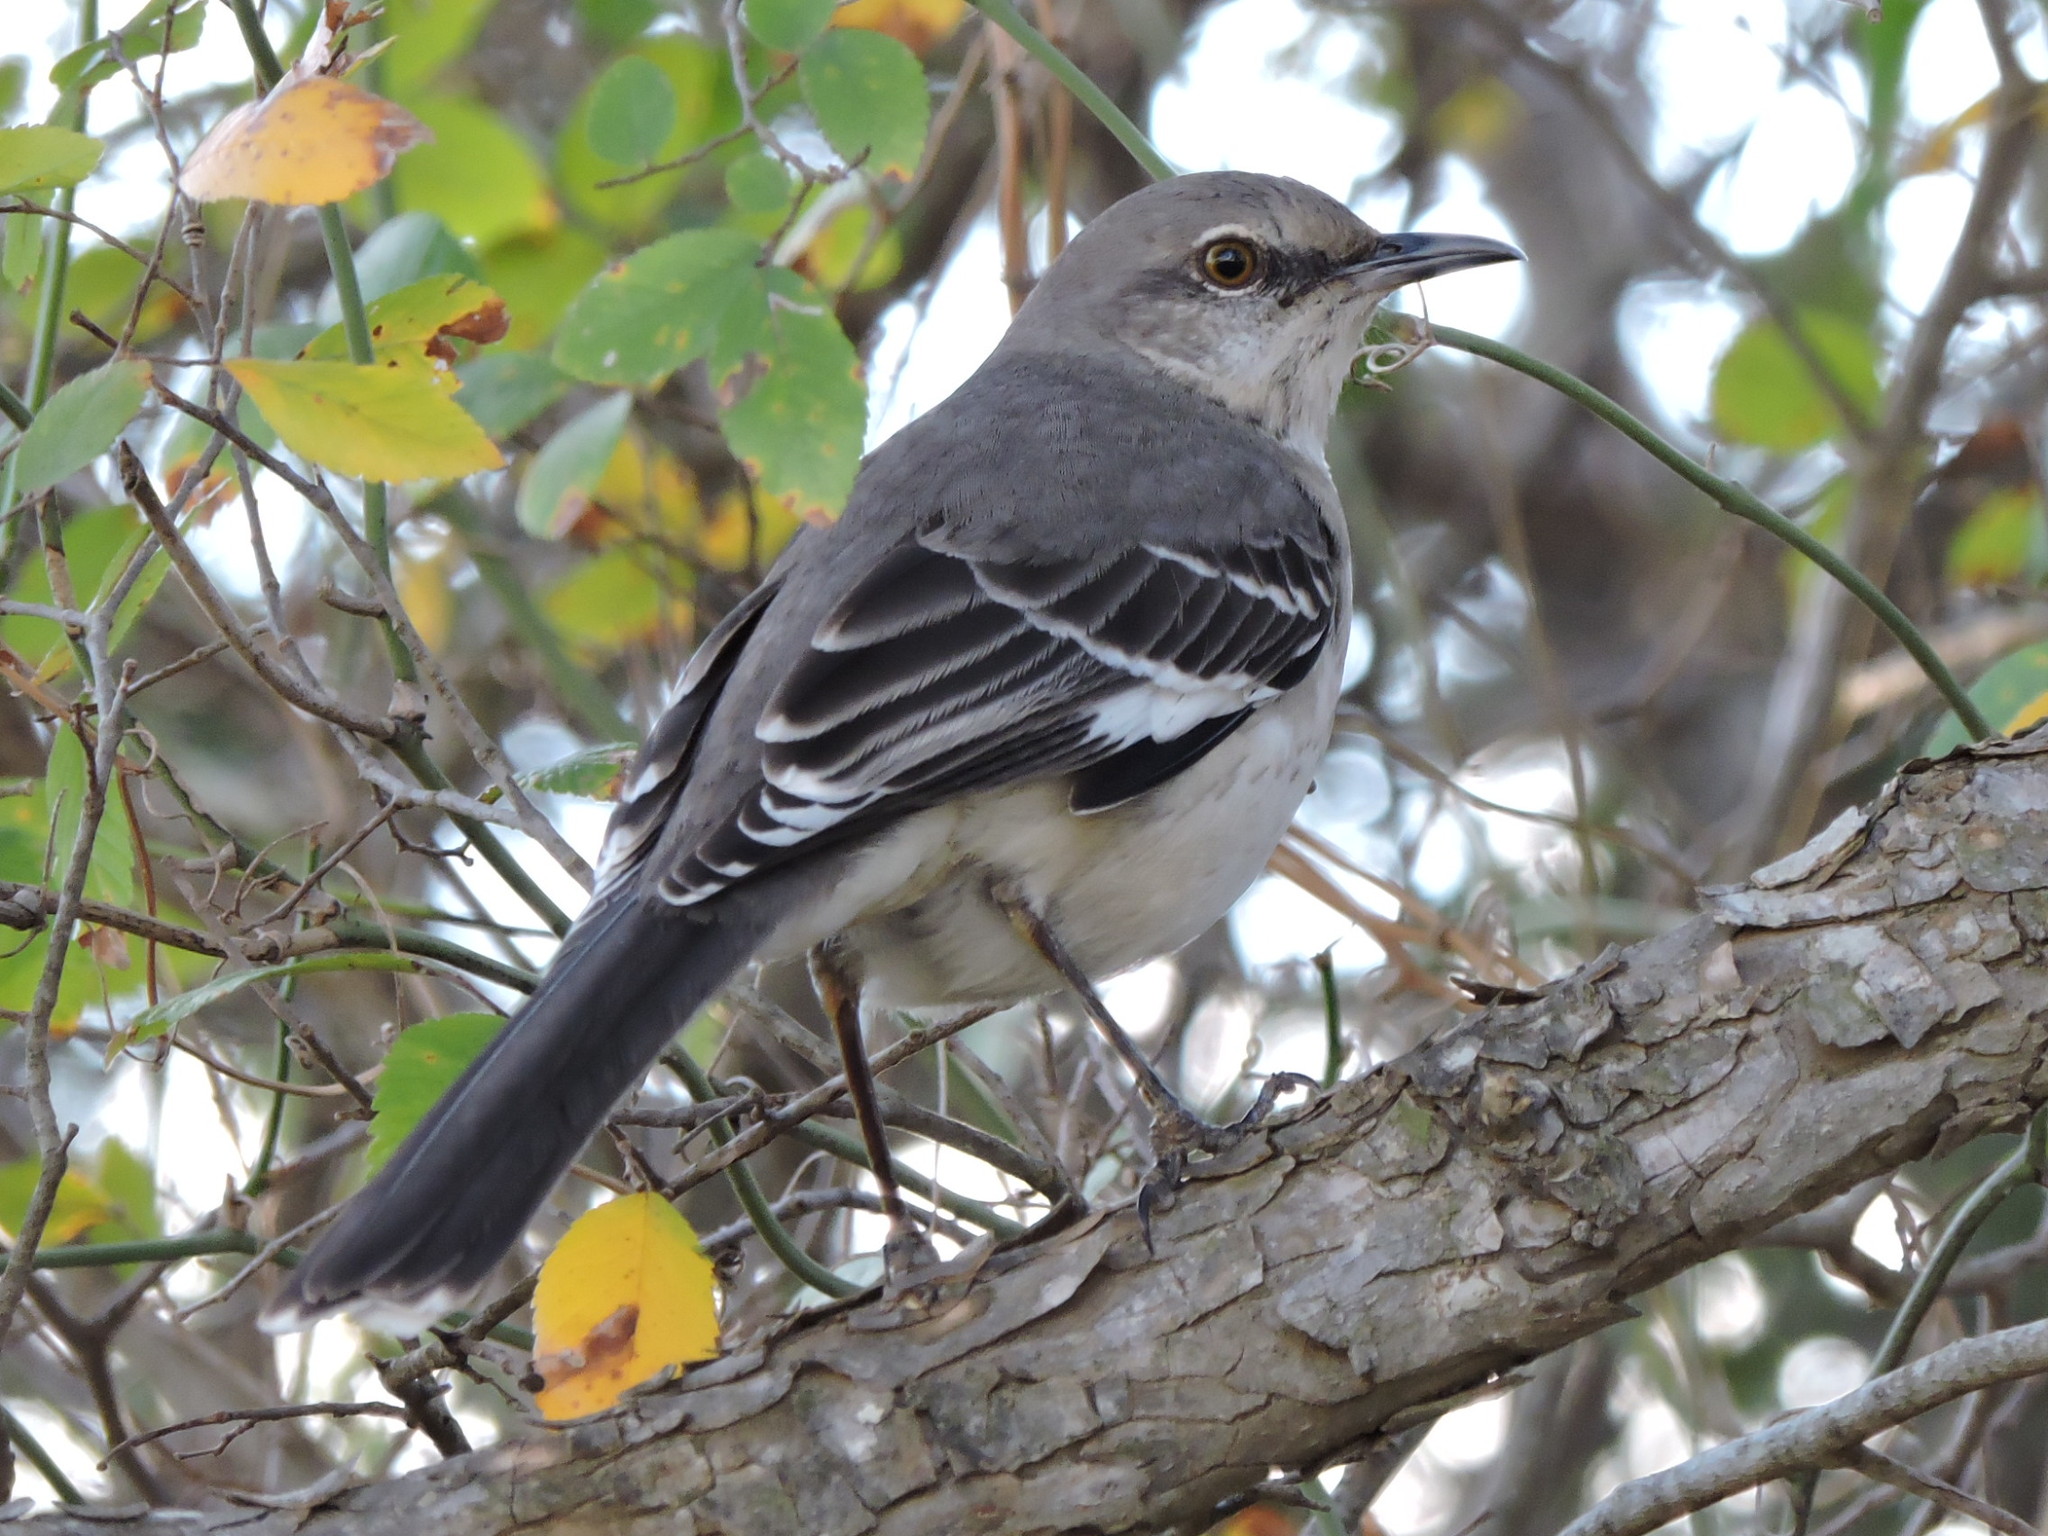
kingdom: Animalia
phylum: Chordata
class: Aves
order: Passeriformes
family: Mimidae
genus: Mimus
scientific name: Mimus polyglottos
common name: Northern mockingbird
